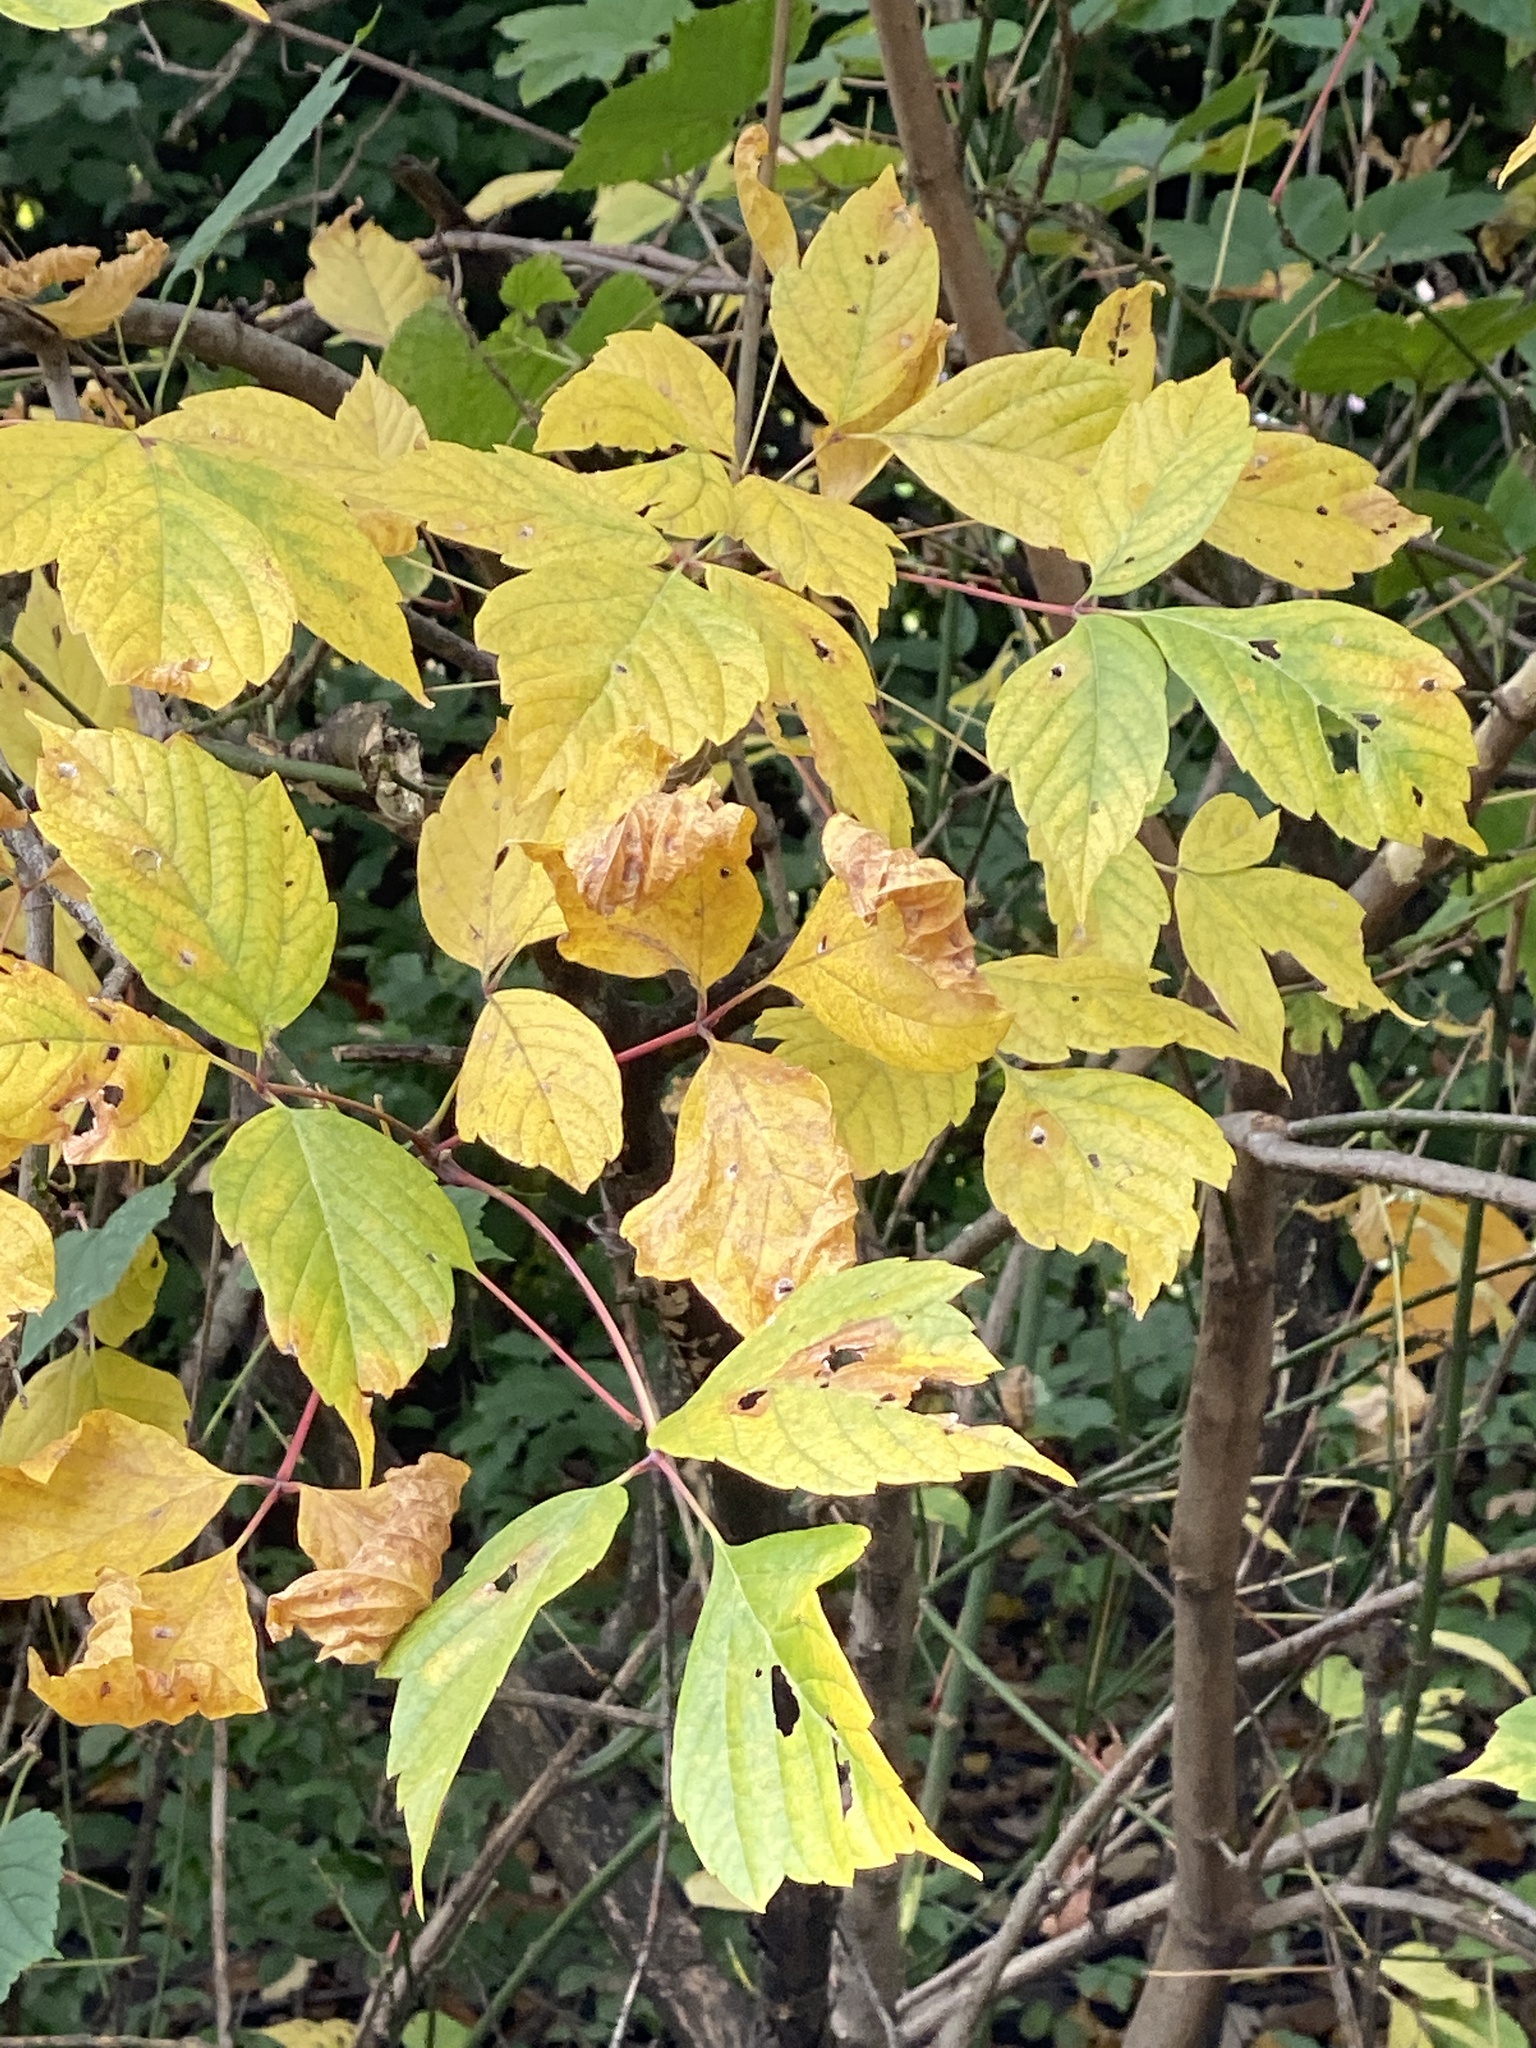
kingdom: Plantae
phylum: Tracheophyta
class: Magnoliopsida
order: Sapindales
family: Sapindaceae
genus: Acer
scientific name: Acer negundo
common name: Ashleaf maple
